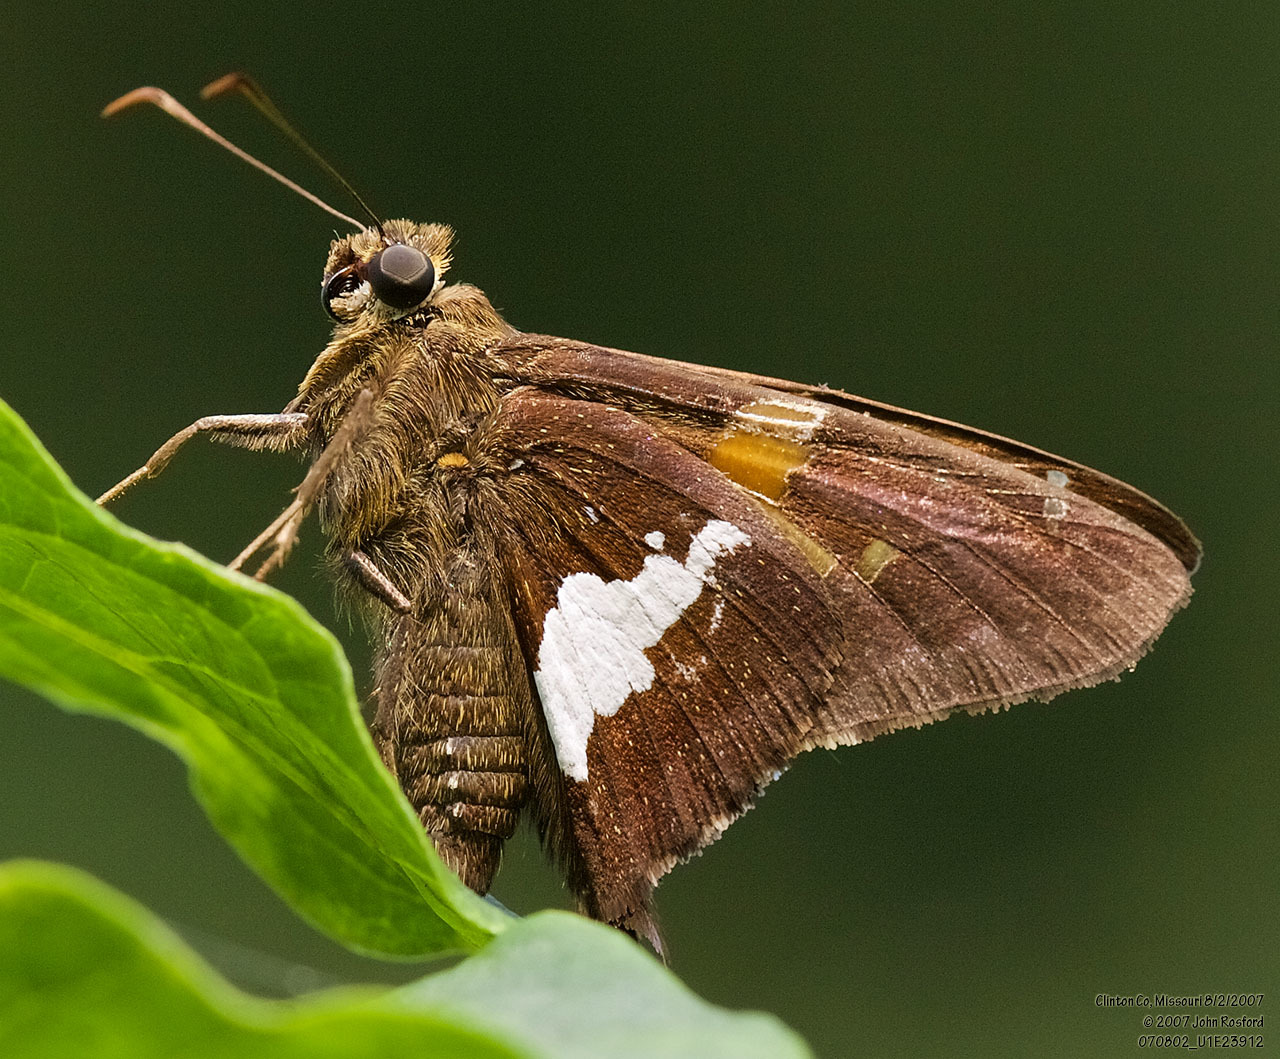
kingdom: Animalia
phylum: Arthropoda
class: Insecta
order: Lepidoptera
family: Hesperiidae
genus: Epargyreus
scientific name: Epargyreus clarus
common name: Silver-spotted skipper
